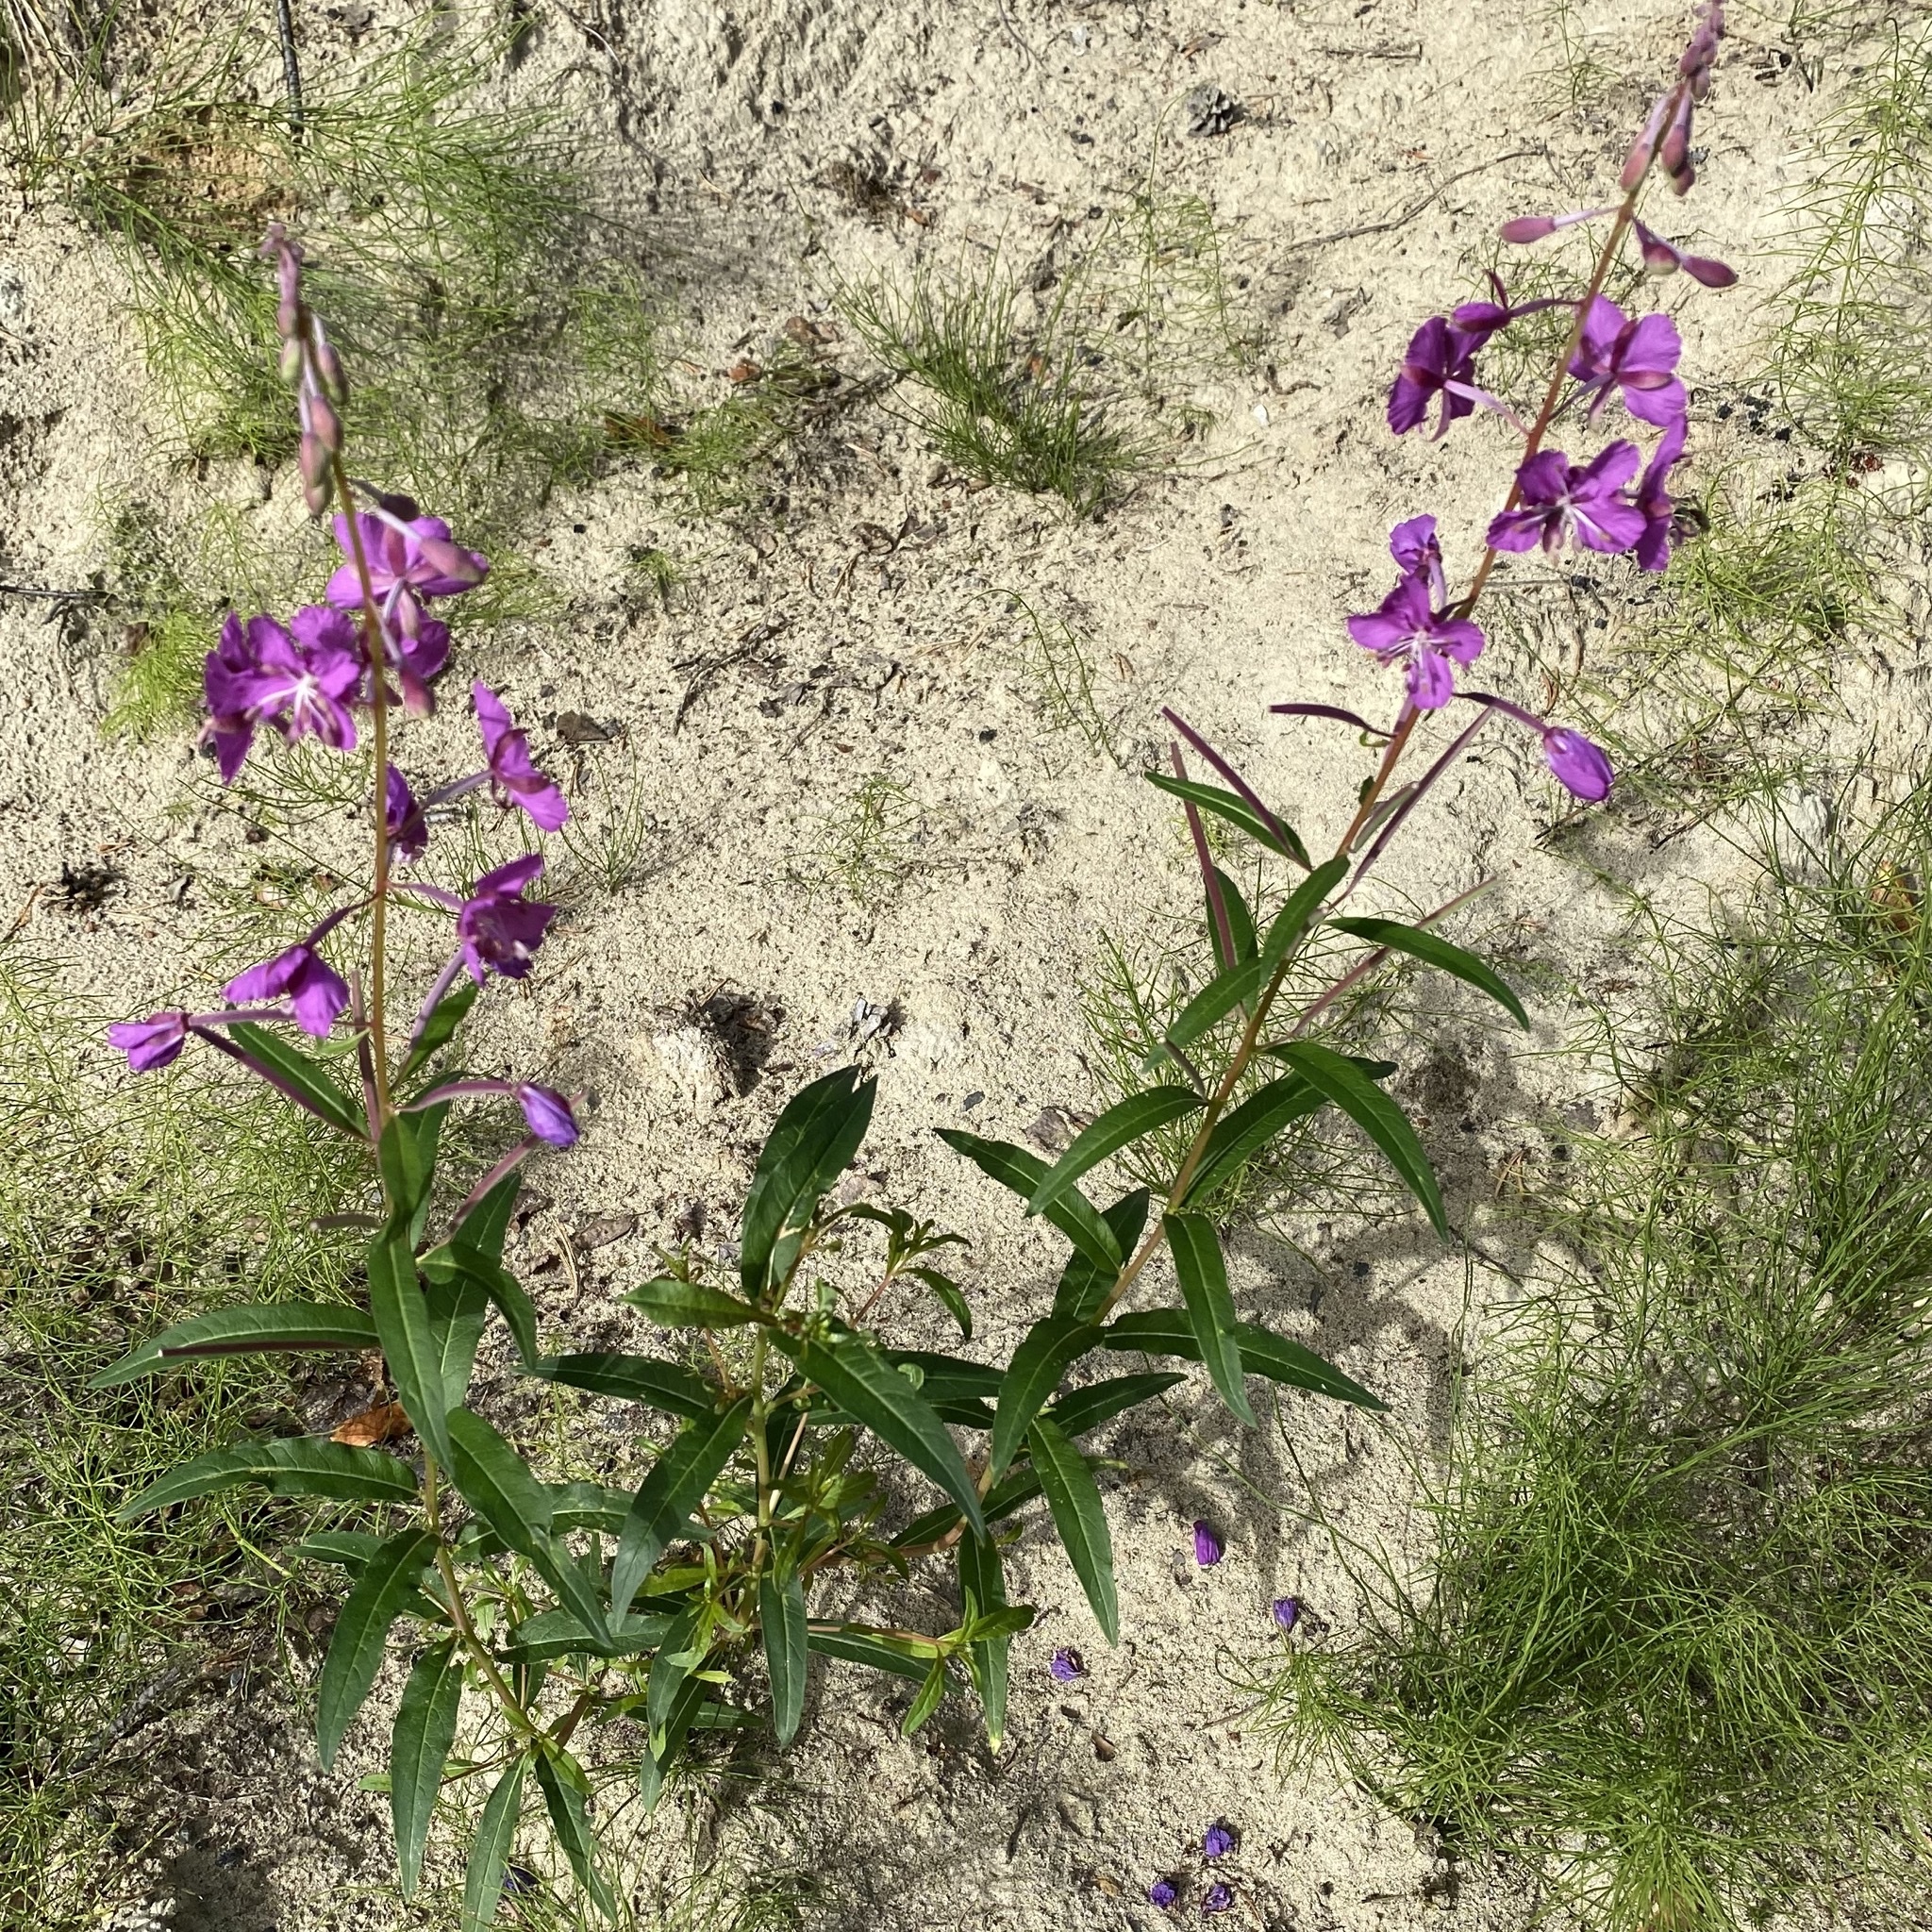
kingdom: Plantae
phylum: Tracheophyta
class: Magnoliopsida
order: Myrtales
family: Onagraceae
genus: Chamaenerion
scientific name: Chamaenerion angustifolium
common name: Fireweed
